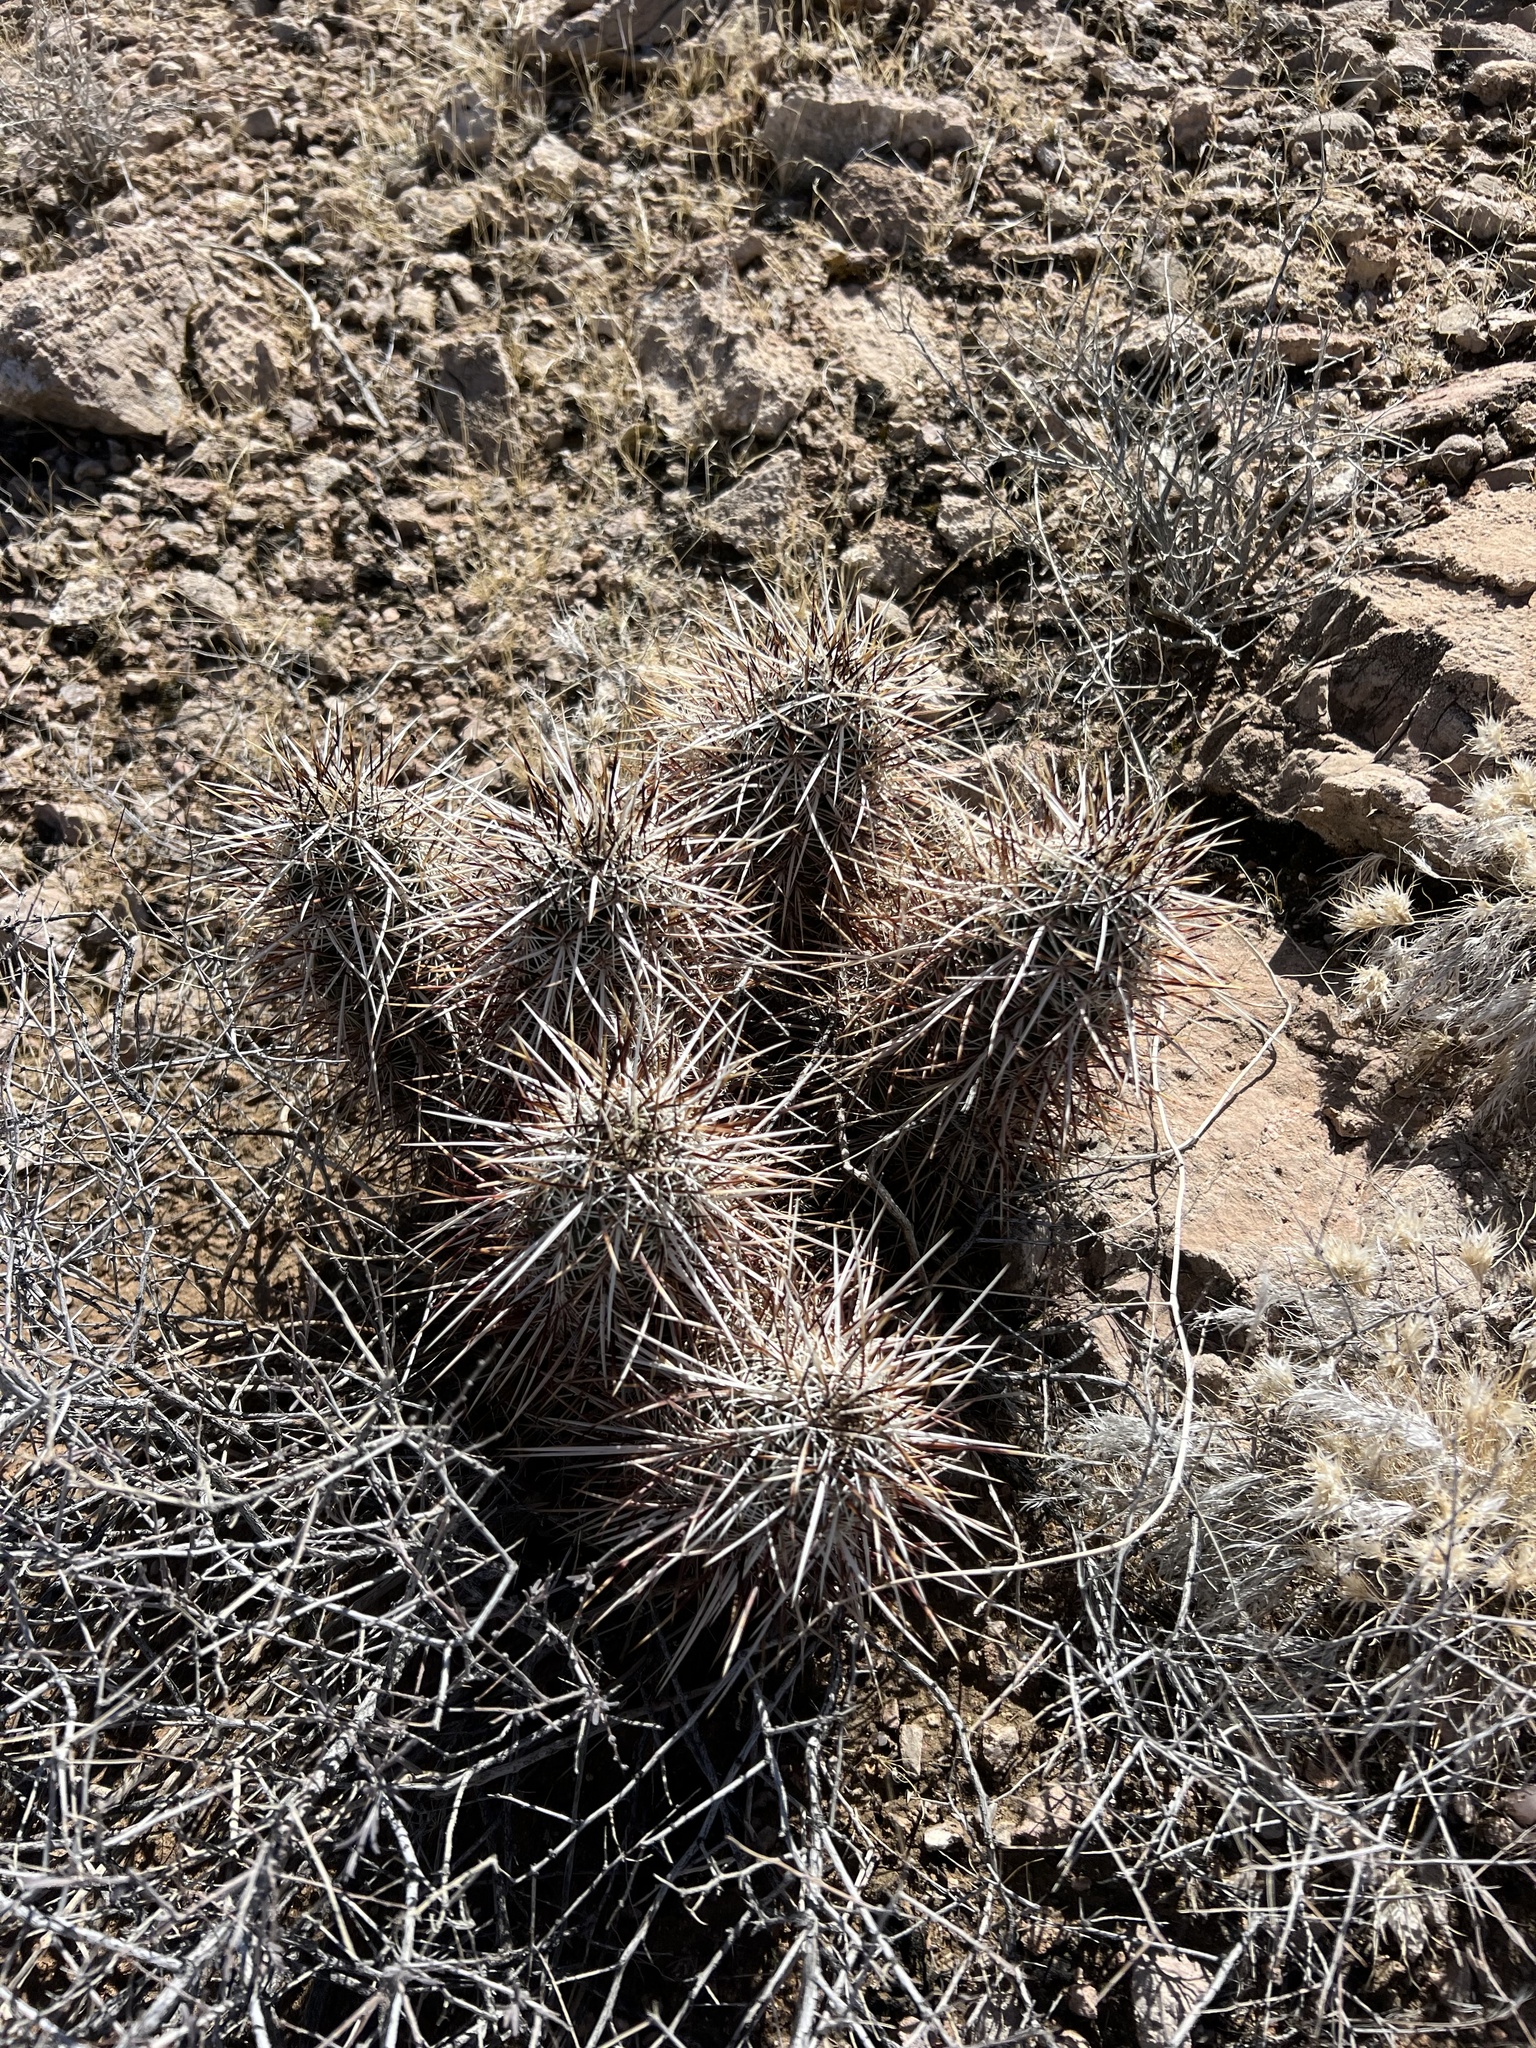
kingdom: Plantae
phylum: Tracheophyta
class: Magnoliopsida
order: Caryophyllales
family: Cactaceae
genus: Echinocereus
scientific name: Echinocereus engelmannii
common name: Engelmann's hedgehog cactus
